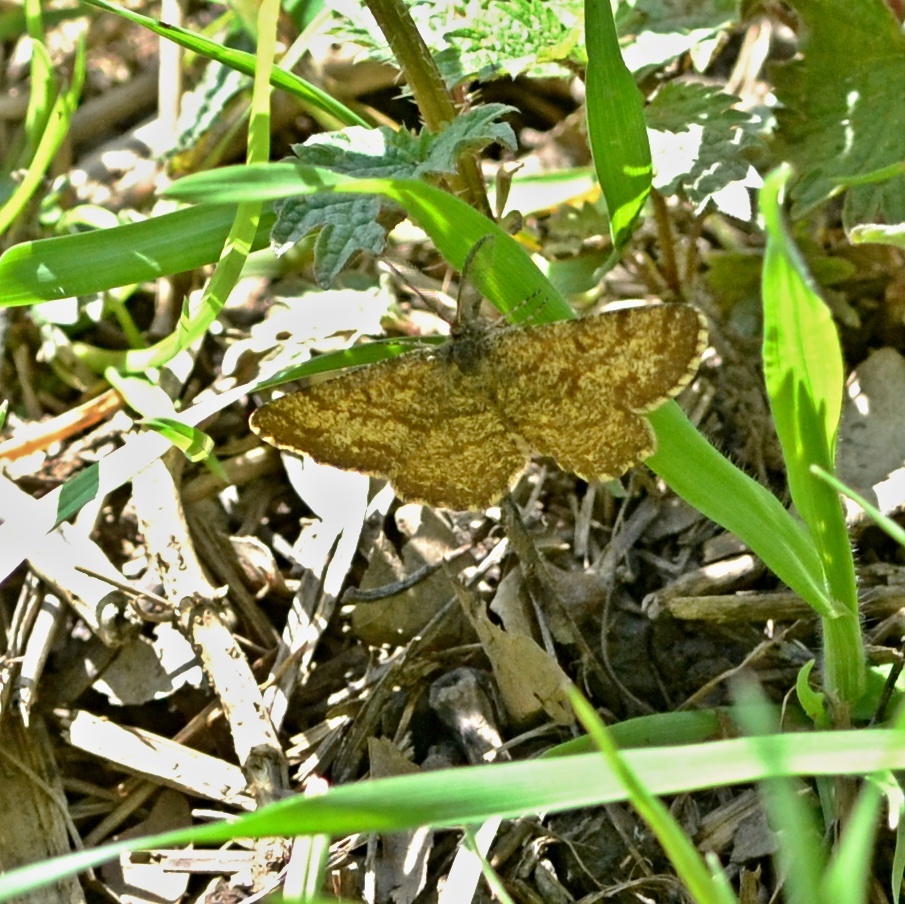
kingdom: Animalia
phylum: Arthropoda
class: Insecta
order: Lepidoptera
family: Geometridae
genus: Ematurga
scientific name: Ematurga atomaria
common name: Common heath
